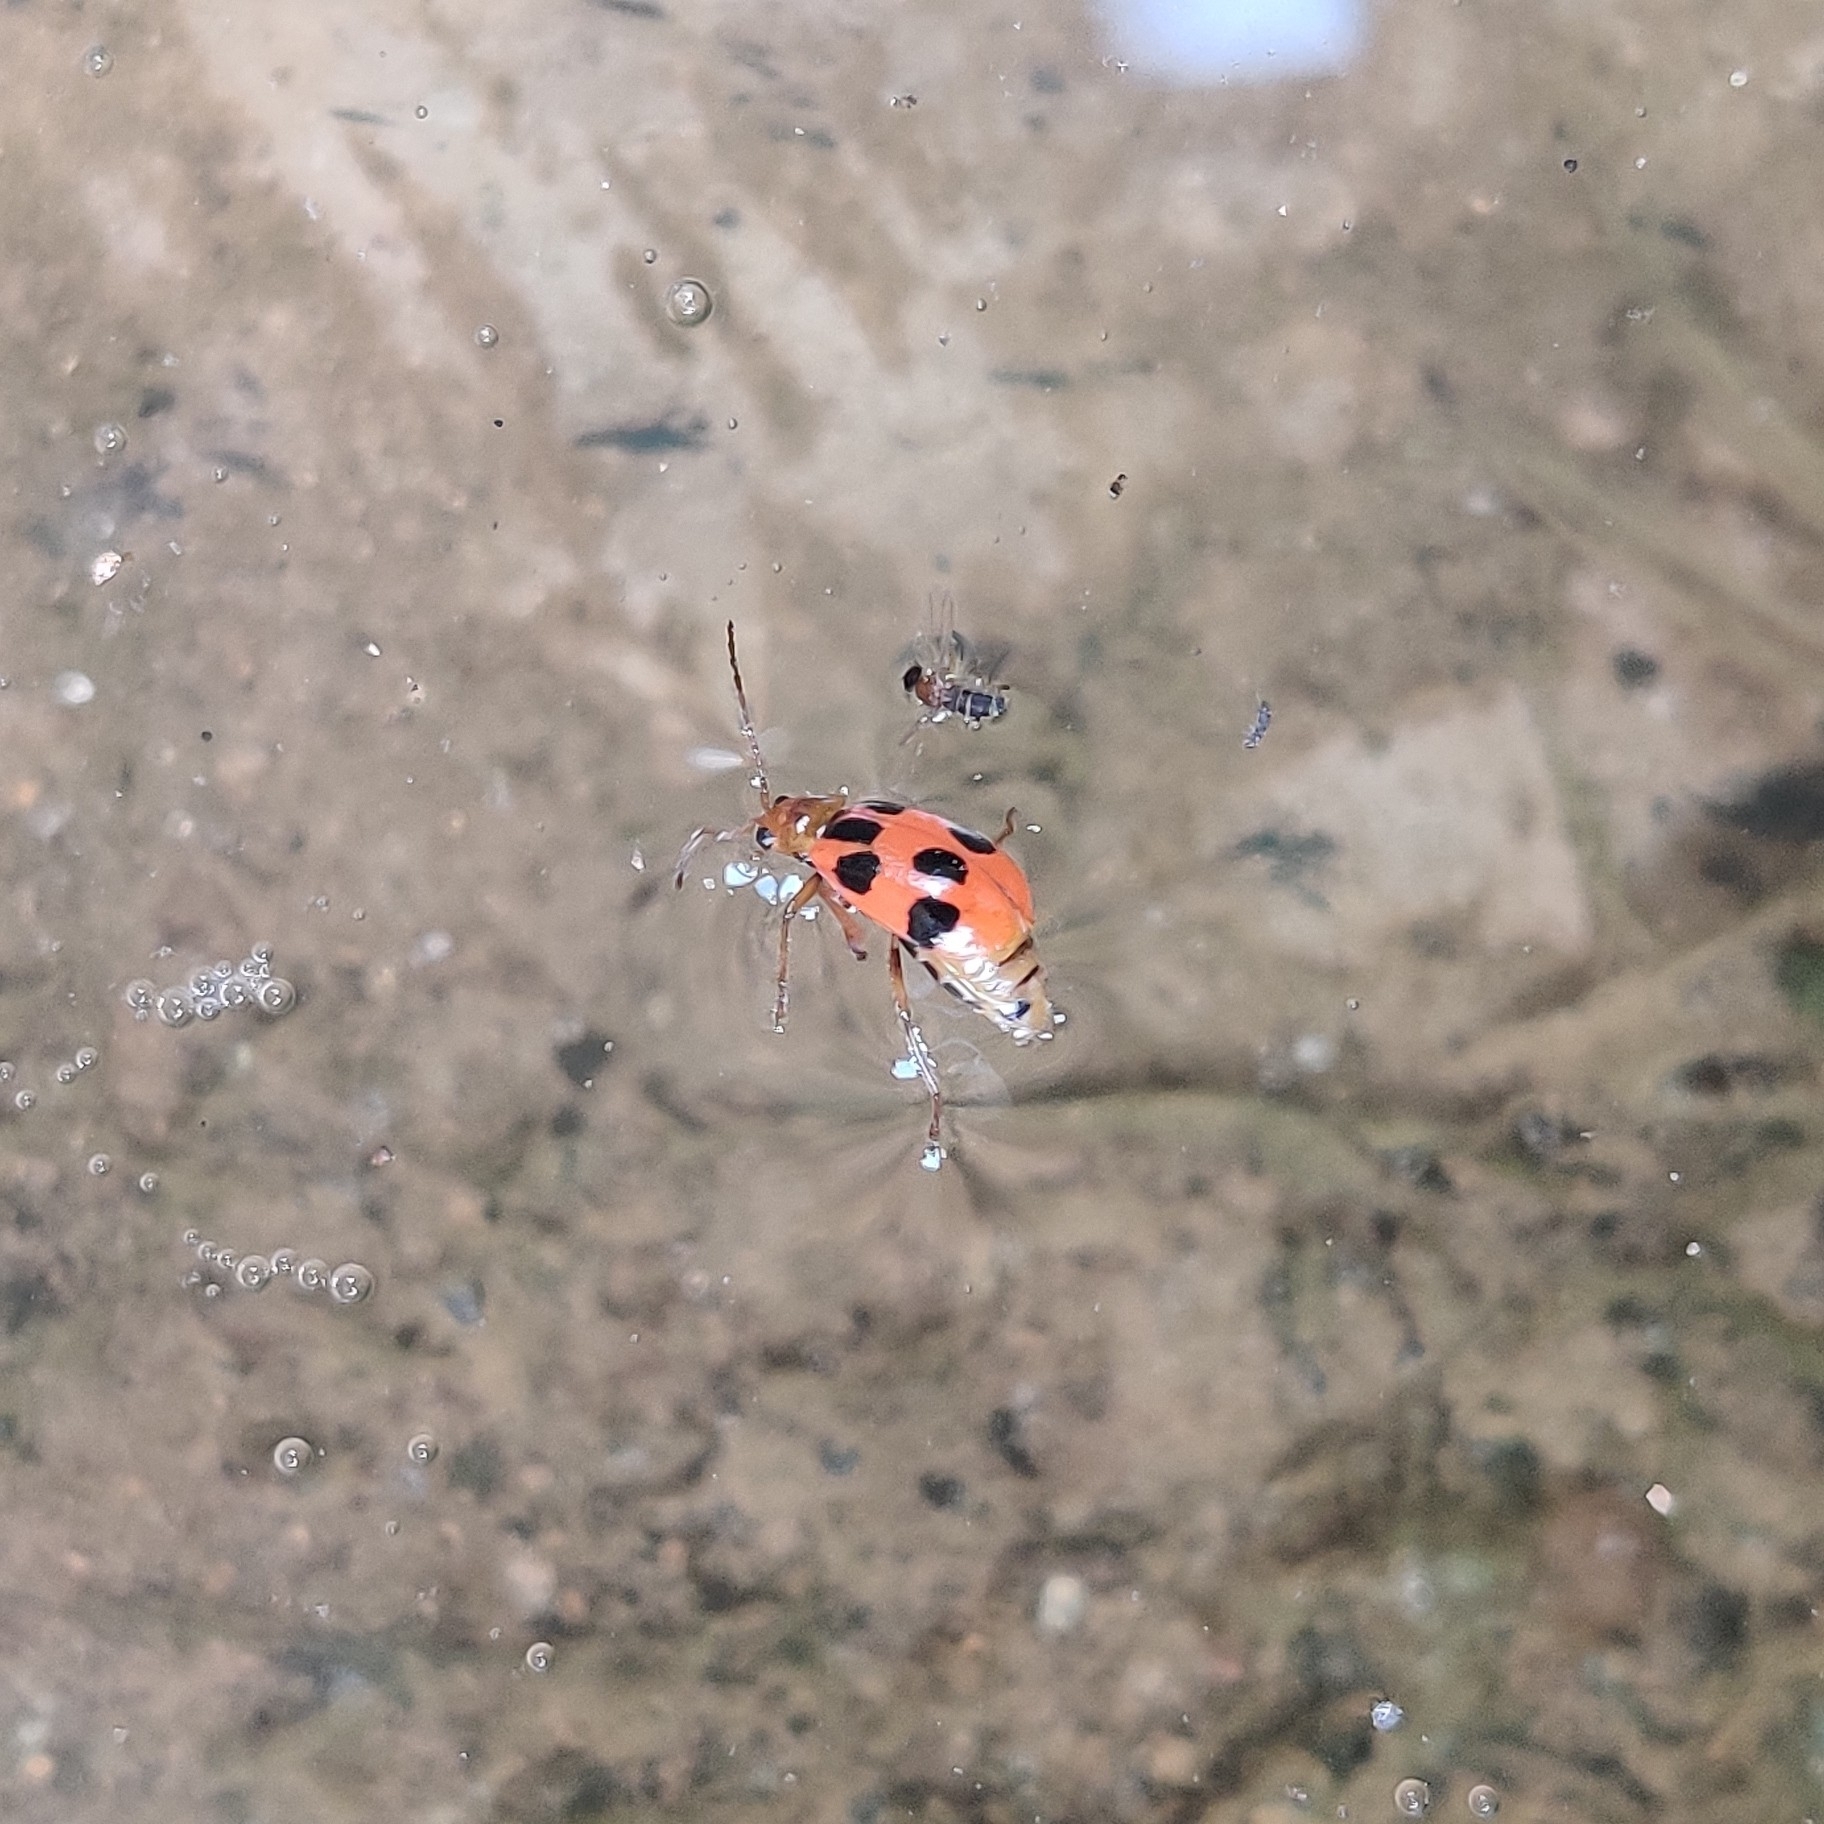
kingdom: Animalia
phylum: Arthropoda
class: Insecta
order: Coleoptera
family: Chrysomelidae
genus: Paridea
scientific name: Paridea
